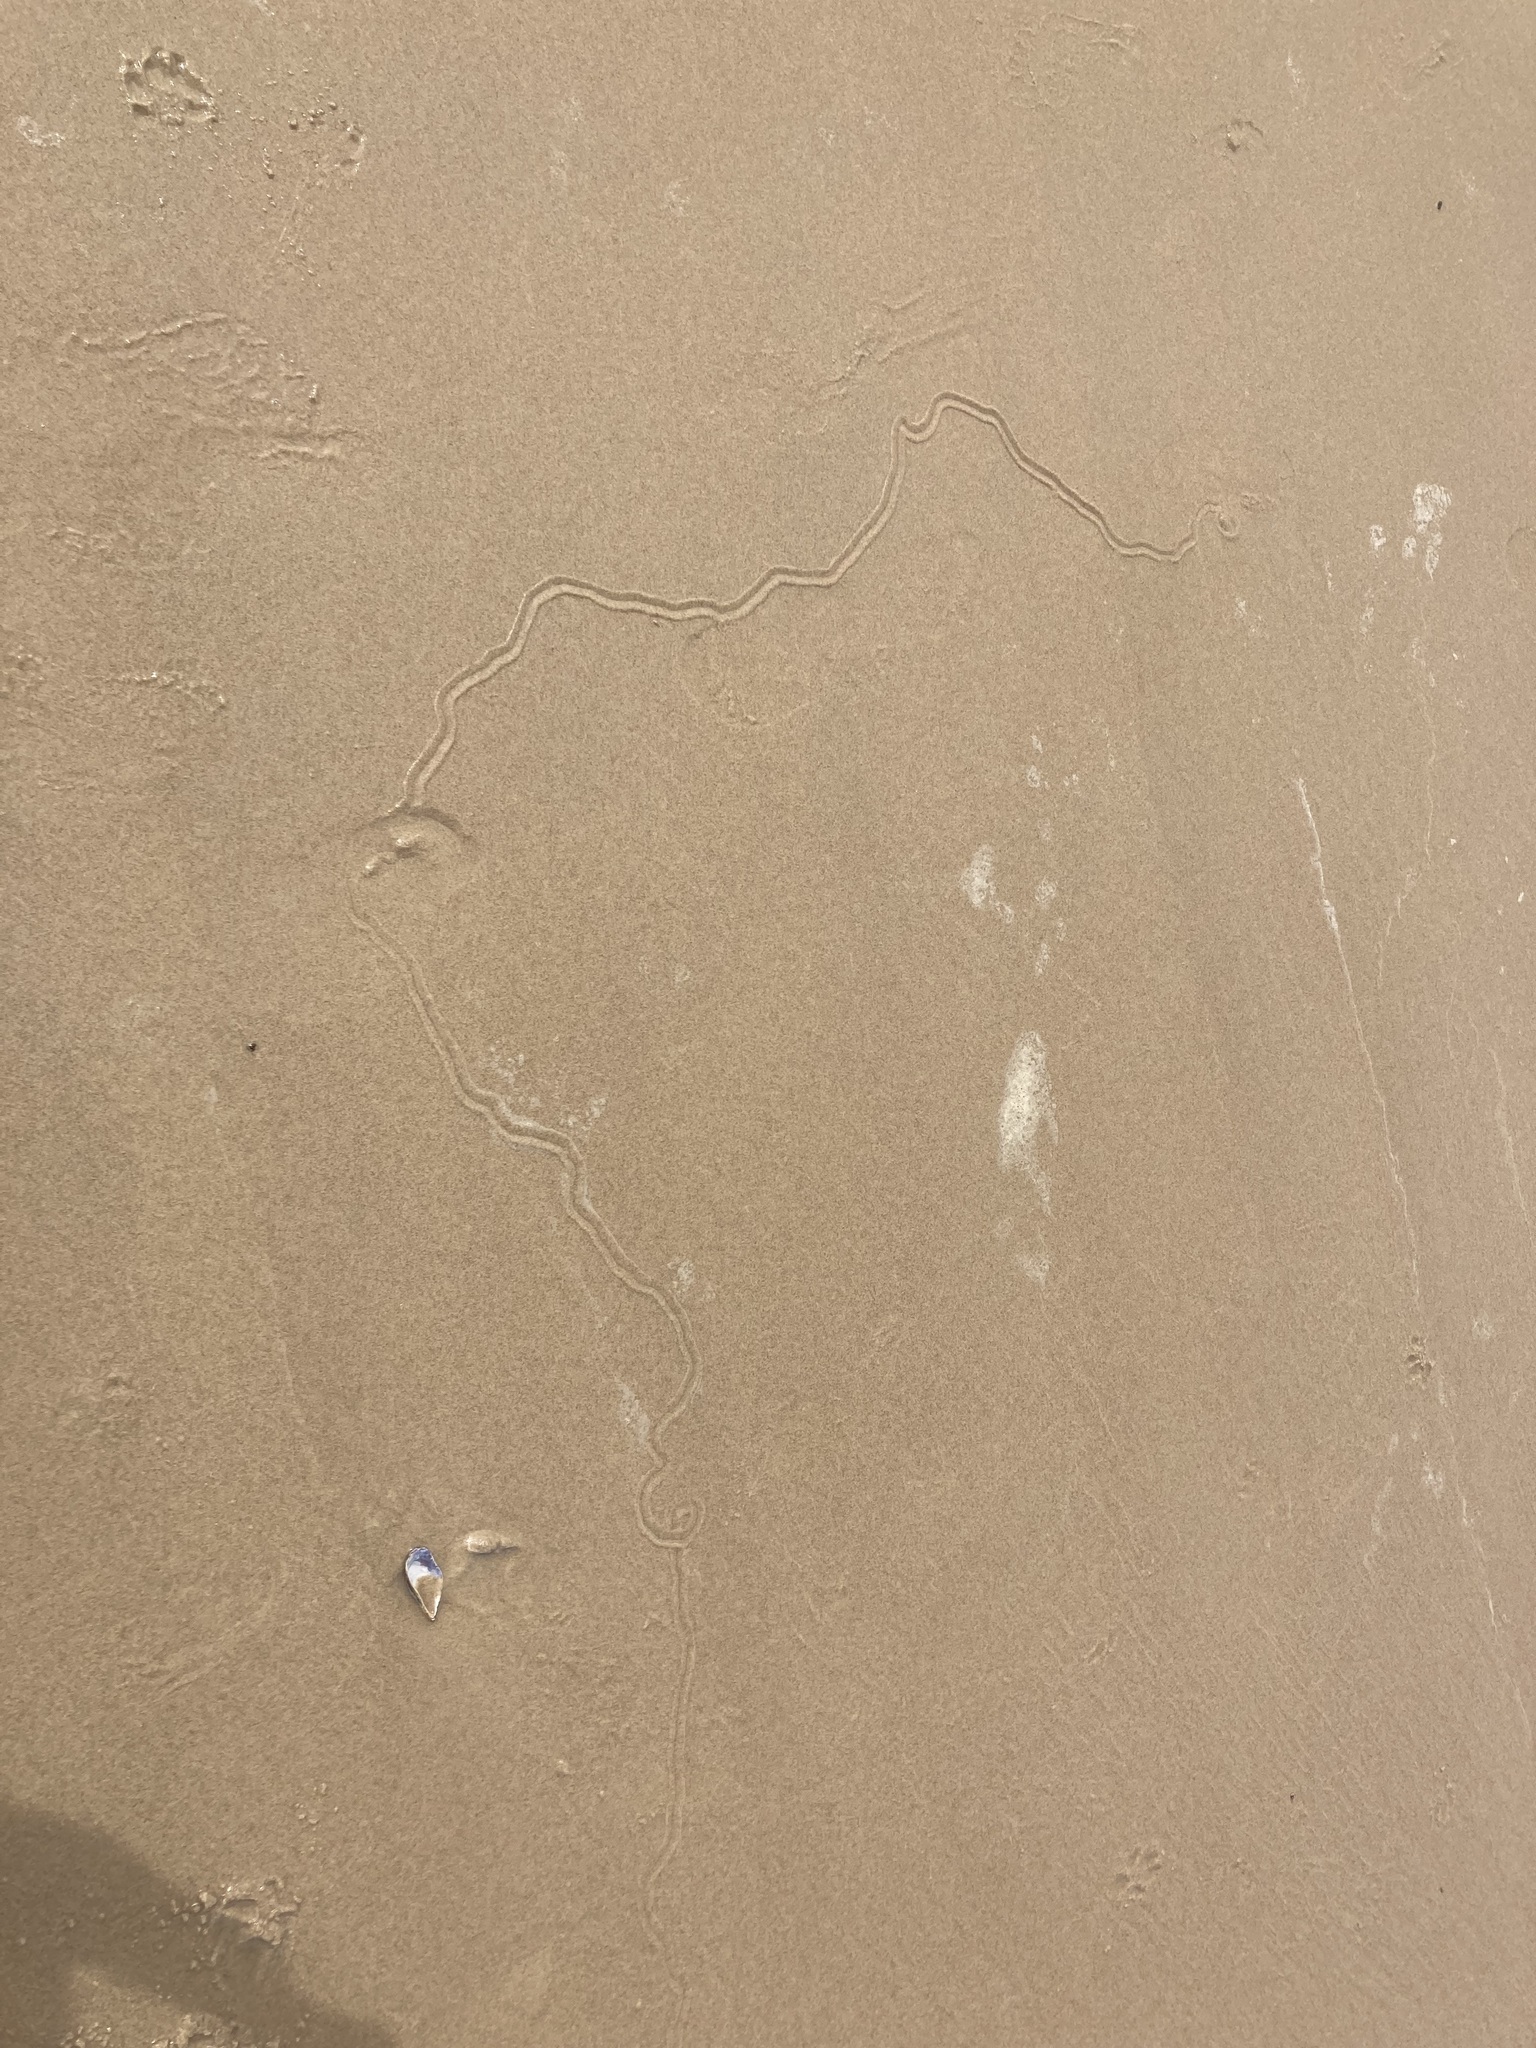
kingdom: Animalia
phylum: Mollusca
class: Gastropoda
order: Littorinimorpha
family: Naticidae
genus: Conuber
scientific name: Conuber incei
